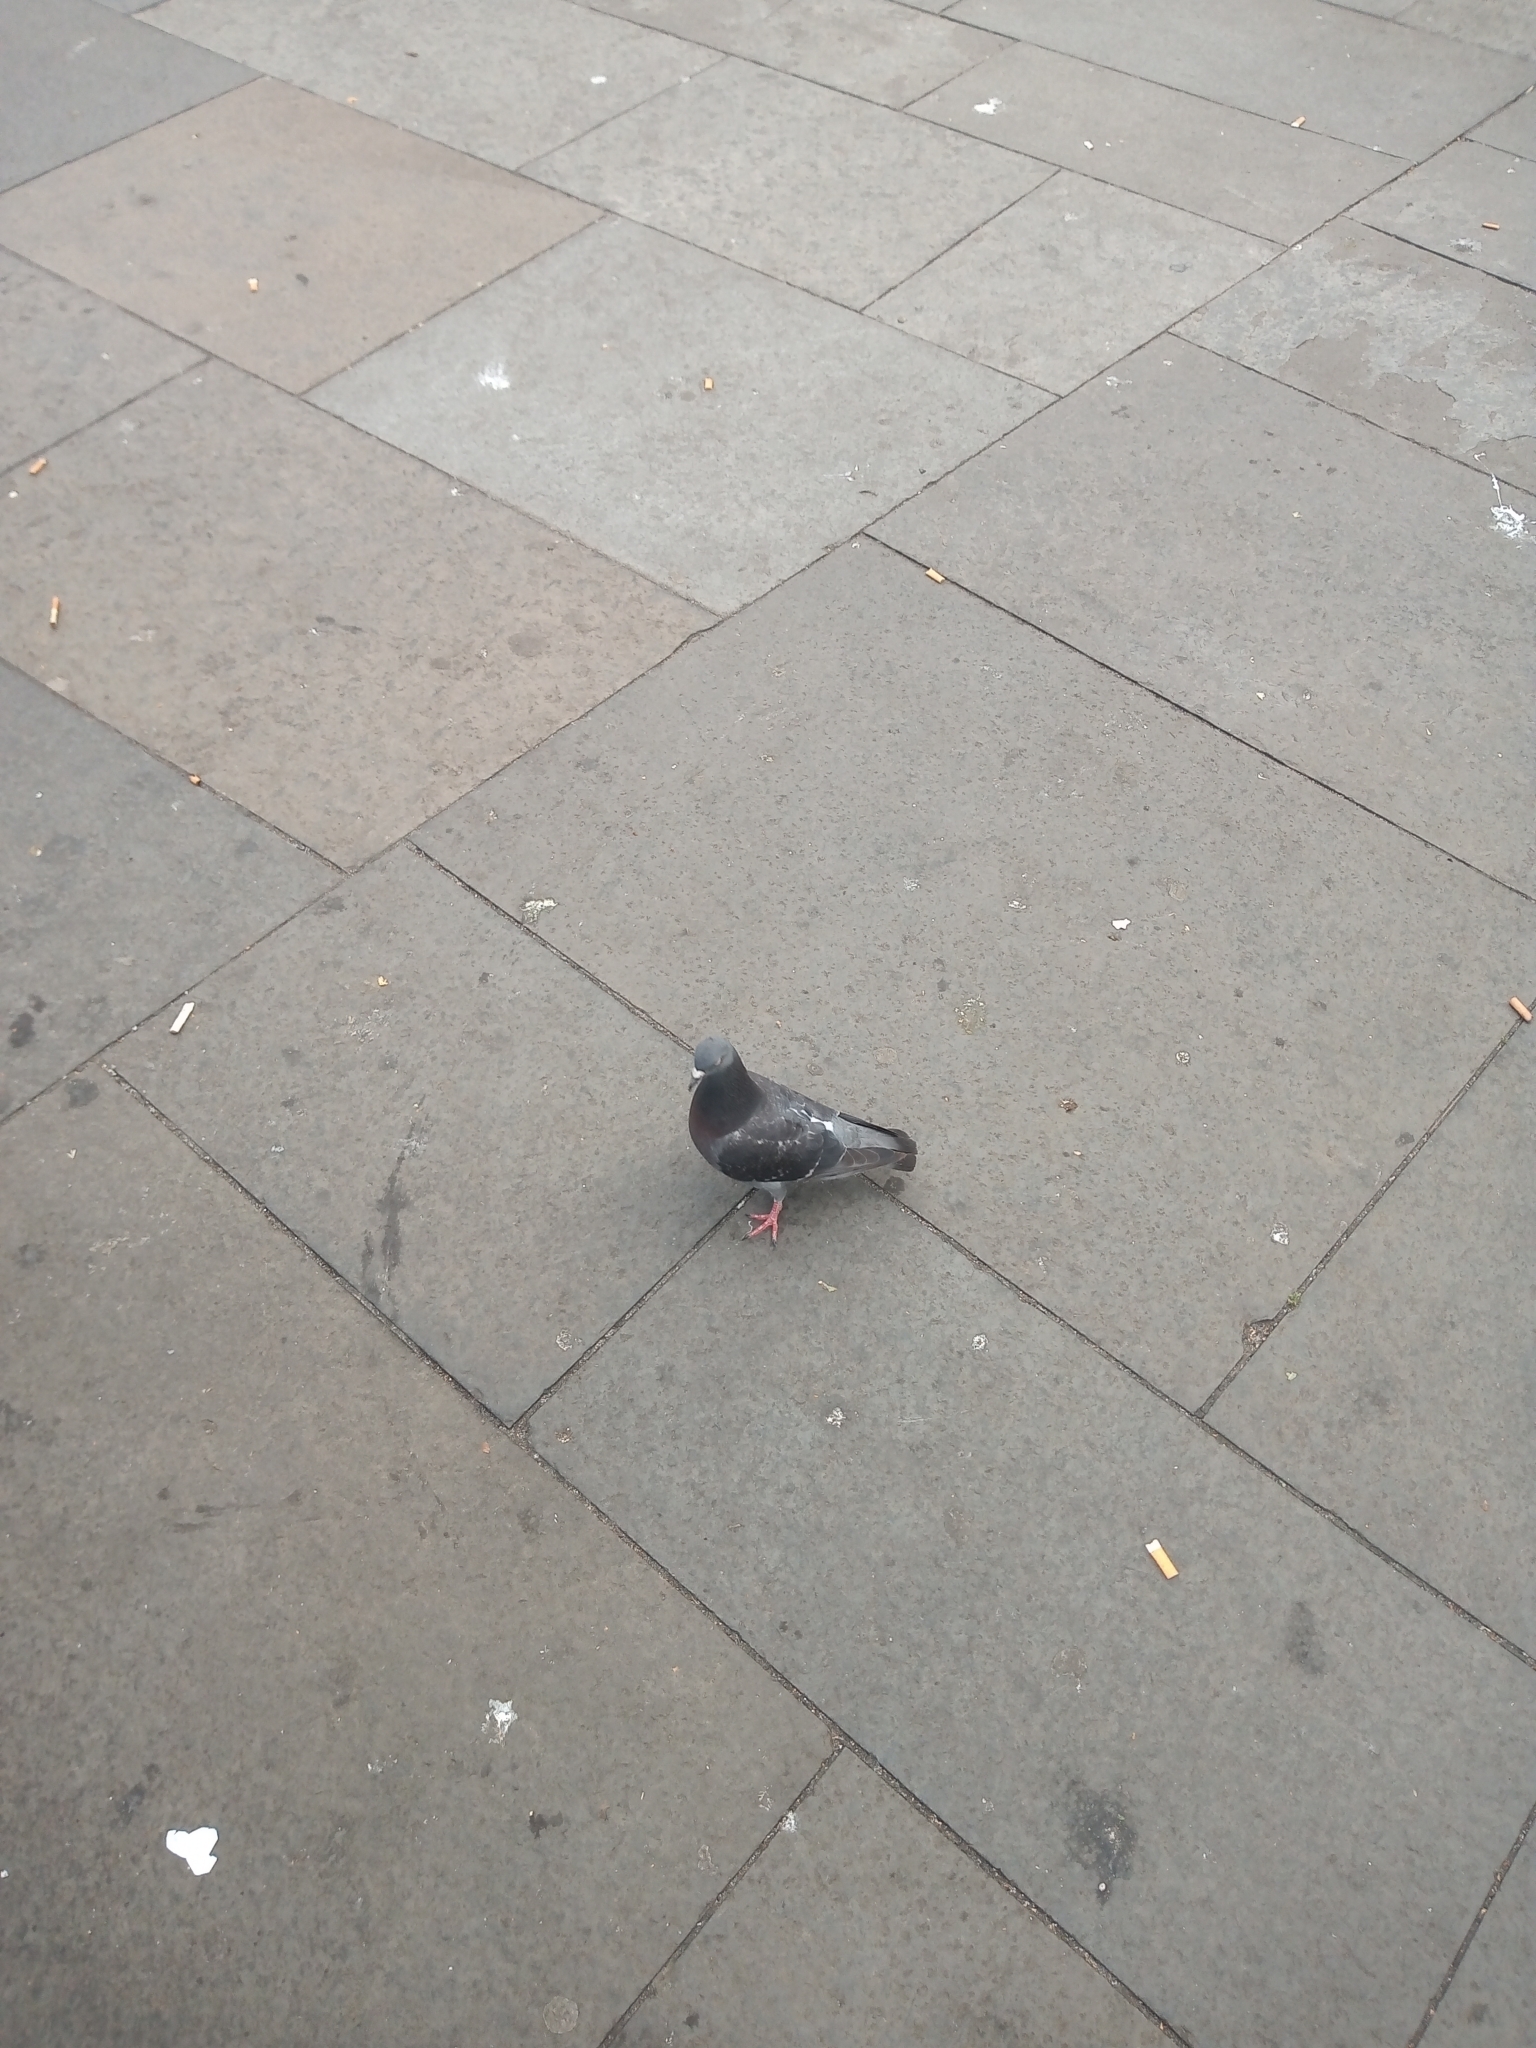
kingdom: Animalia
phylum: Chordata
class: Aves
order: Columbiformes
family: Columbidae
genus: Columba
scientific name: Columba livia
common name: Rock pigeon
